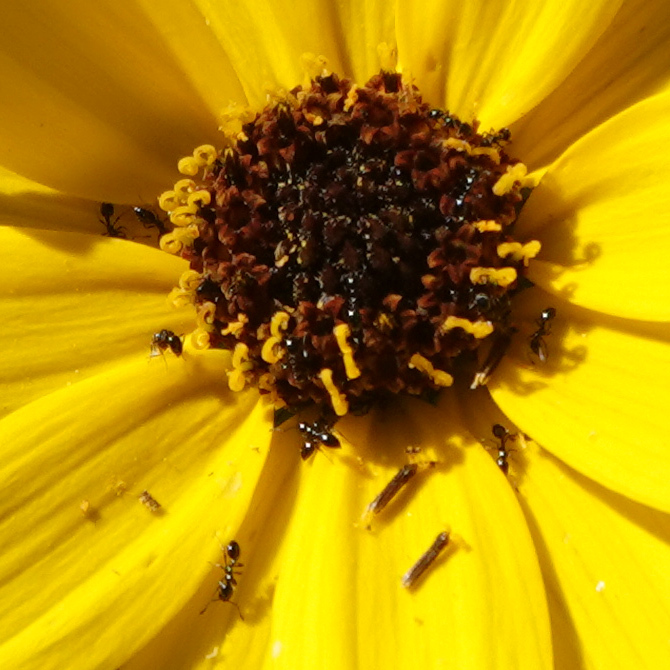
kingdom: Animalia
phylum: Arthropoda
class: Insecta
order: Hymenoptera
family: Formicidae
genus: Monomorium
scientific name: Monomorium minimum
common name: Little black ant
